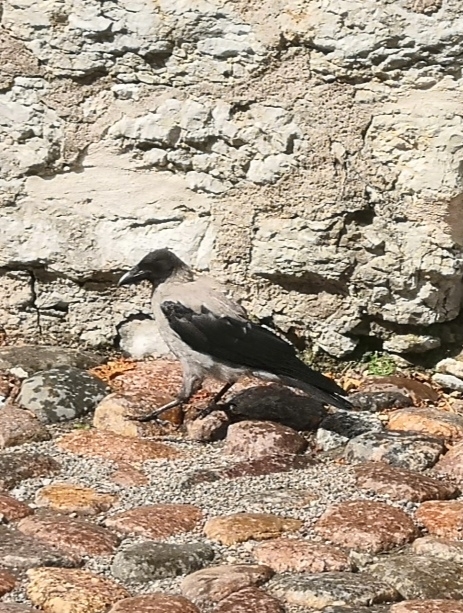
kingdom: Animalia
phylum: Chordata
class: Aves
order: Passeriformes
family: Corvidae
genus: Corvus
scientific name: Corvus cornix
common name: Hooded crow
